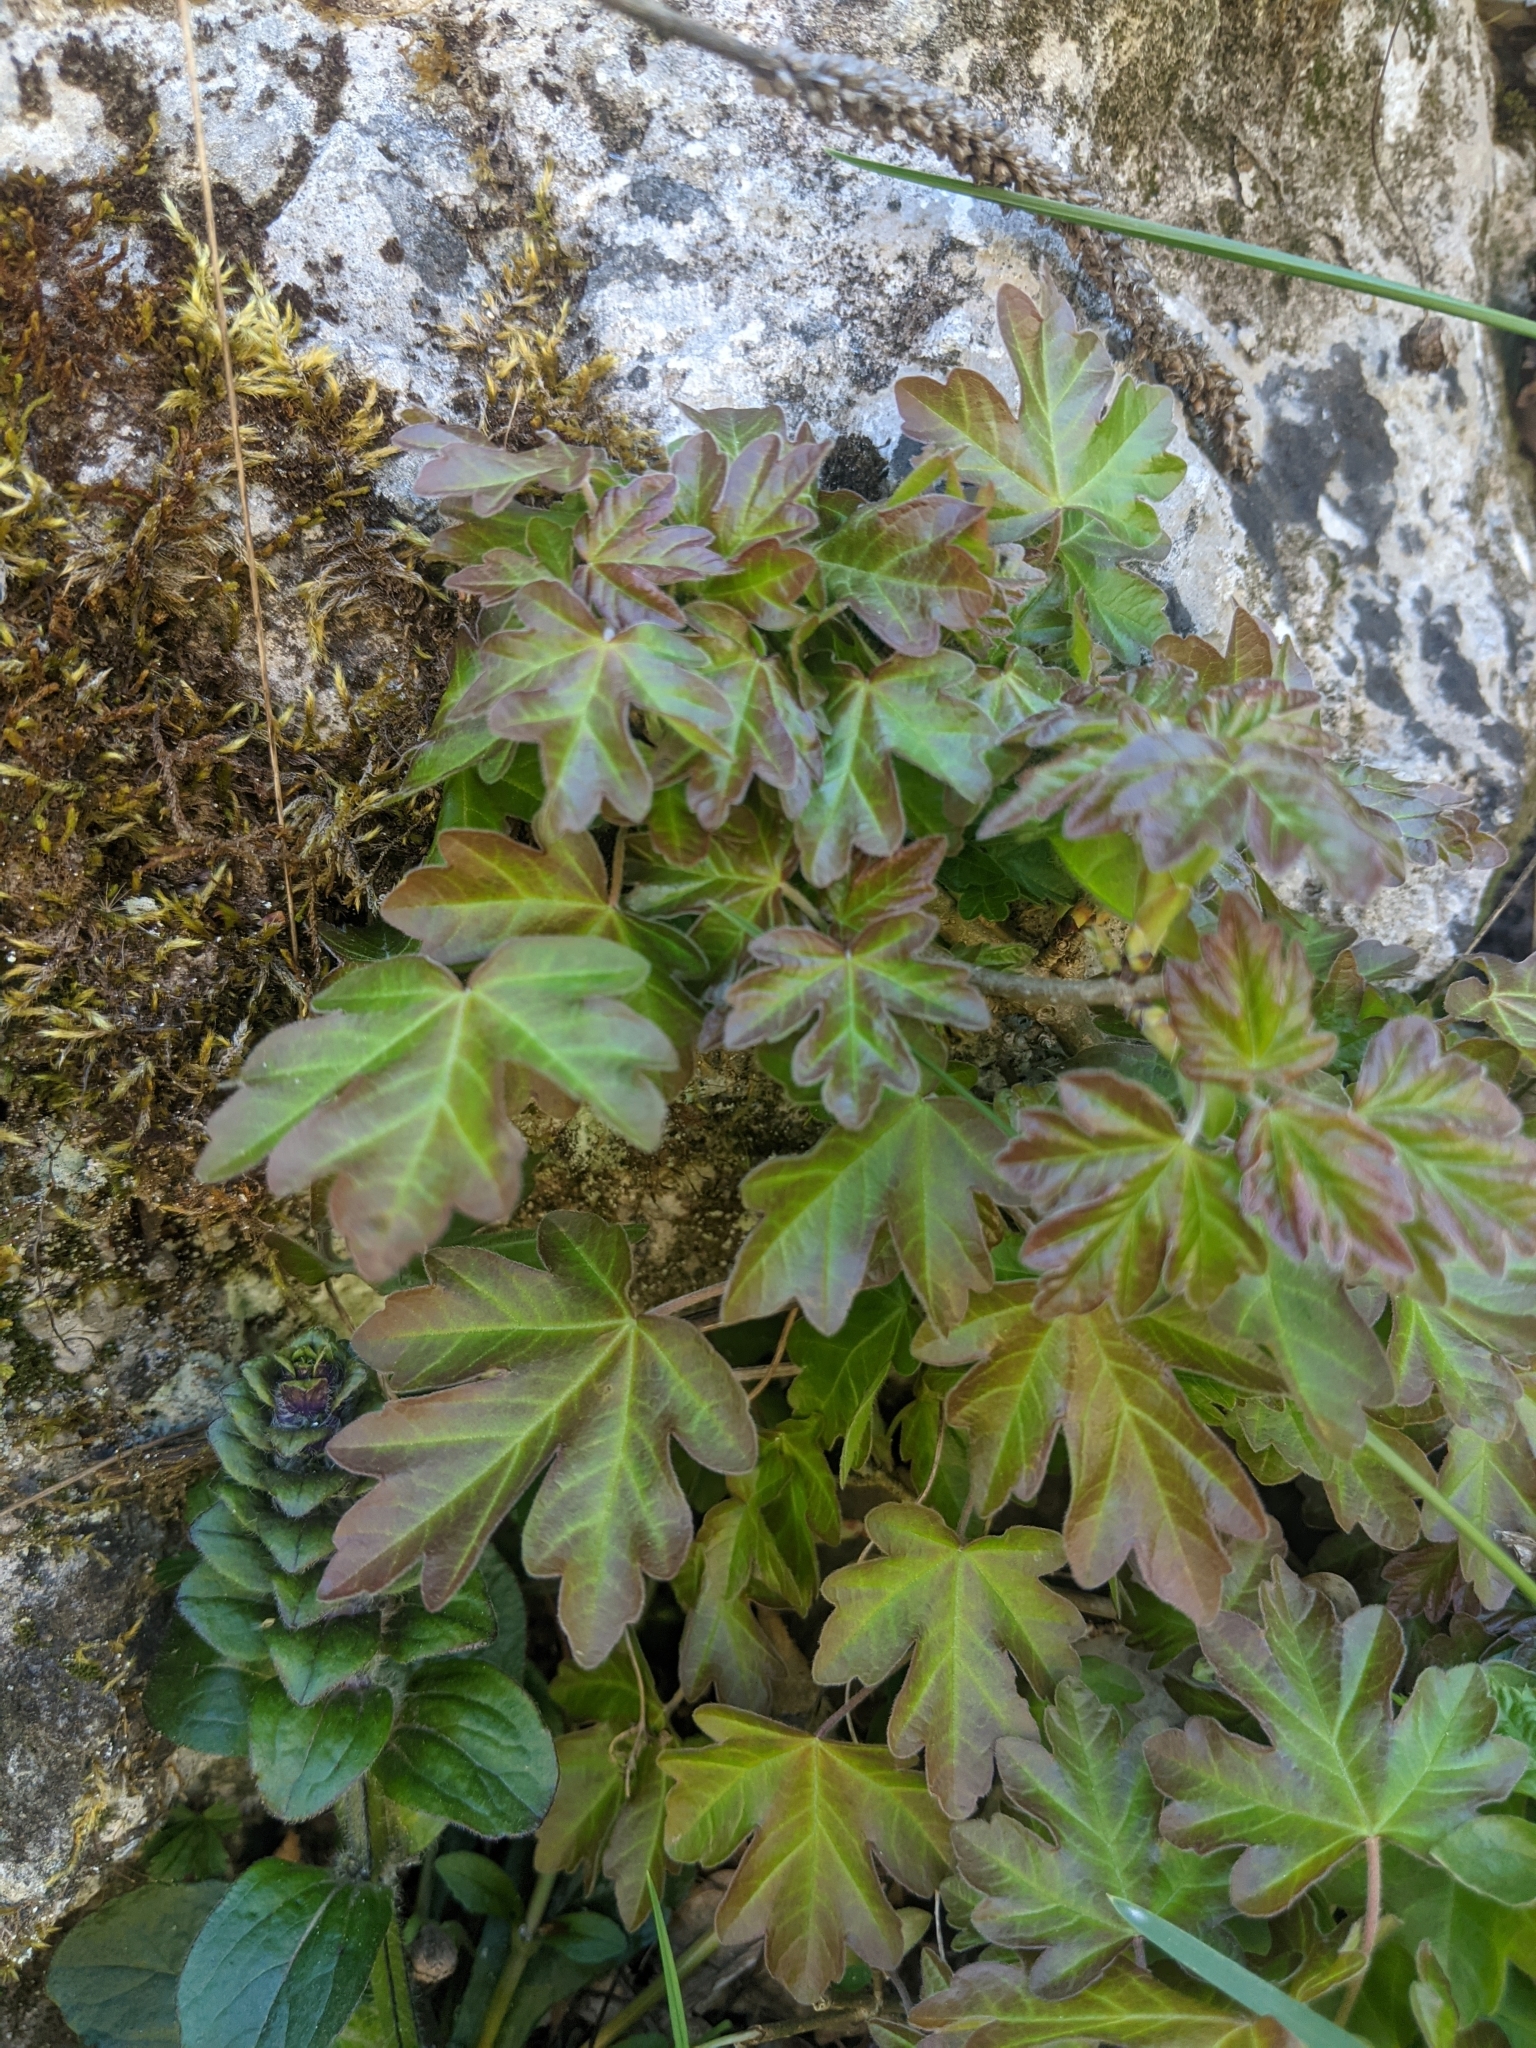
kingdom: Plantae
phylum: Tracheophyta
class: Magnoliopsida
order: Sapindales
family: Sapindaceae
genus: Acer
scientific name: Acer campestre
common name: Field maple
